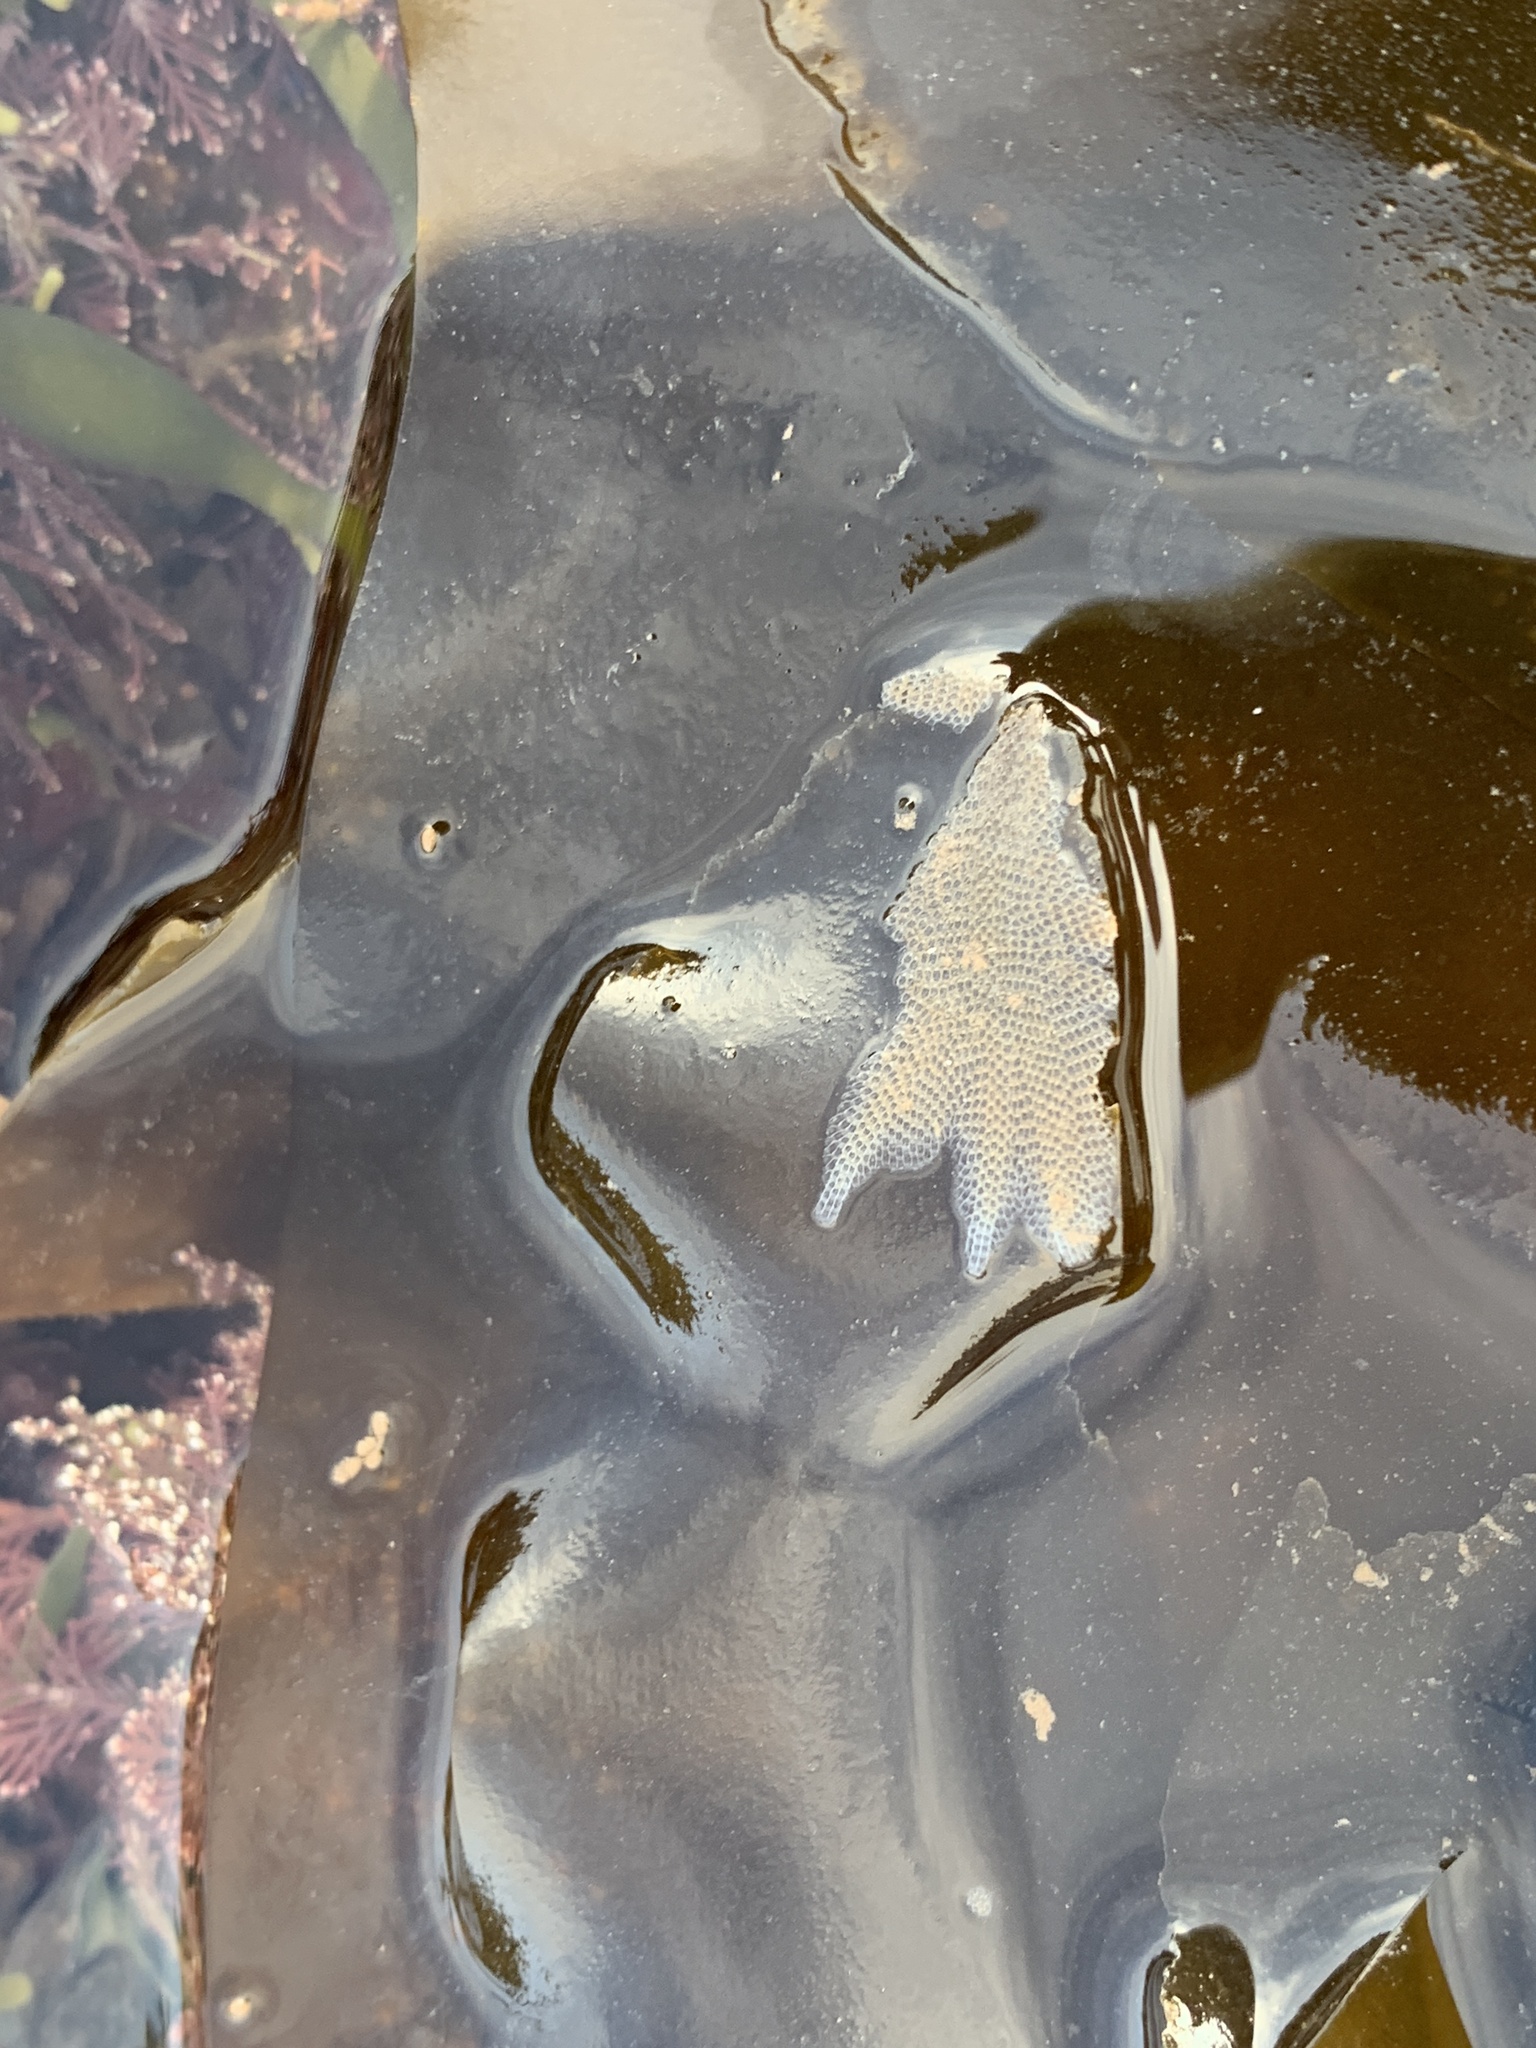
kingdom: Animalia
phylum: Bryozoa
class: Gymnolaemata
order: Cheilostomatida
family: Electridae
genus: Electra
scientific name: Electra pilosa
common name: Hairy sea-mat
